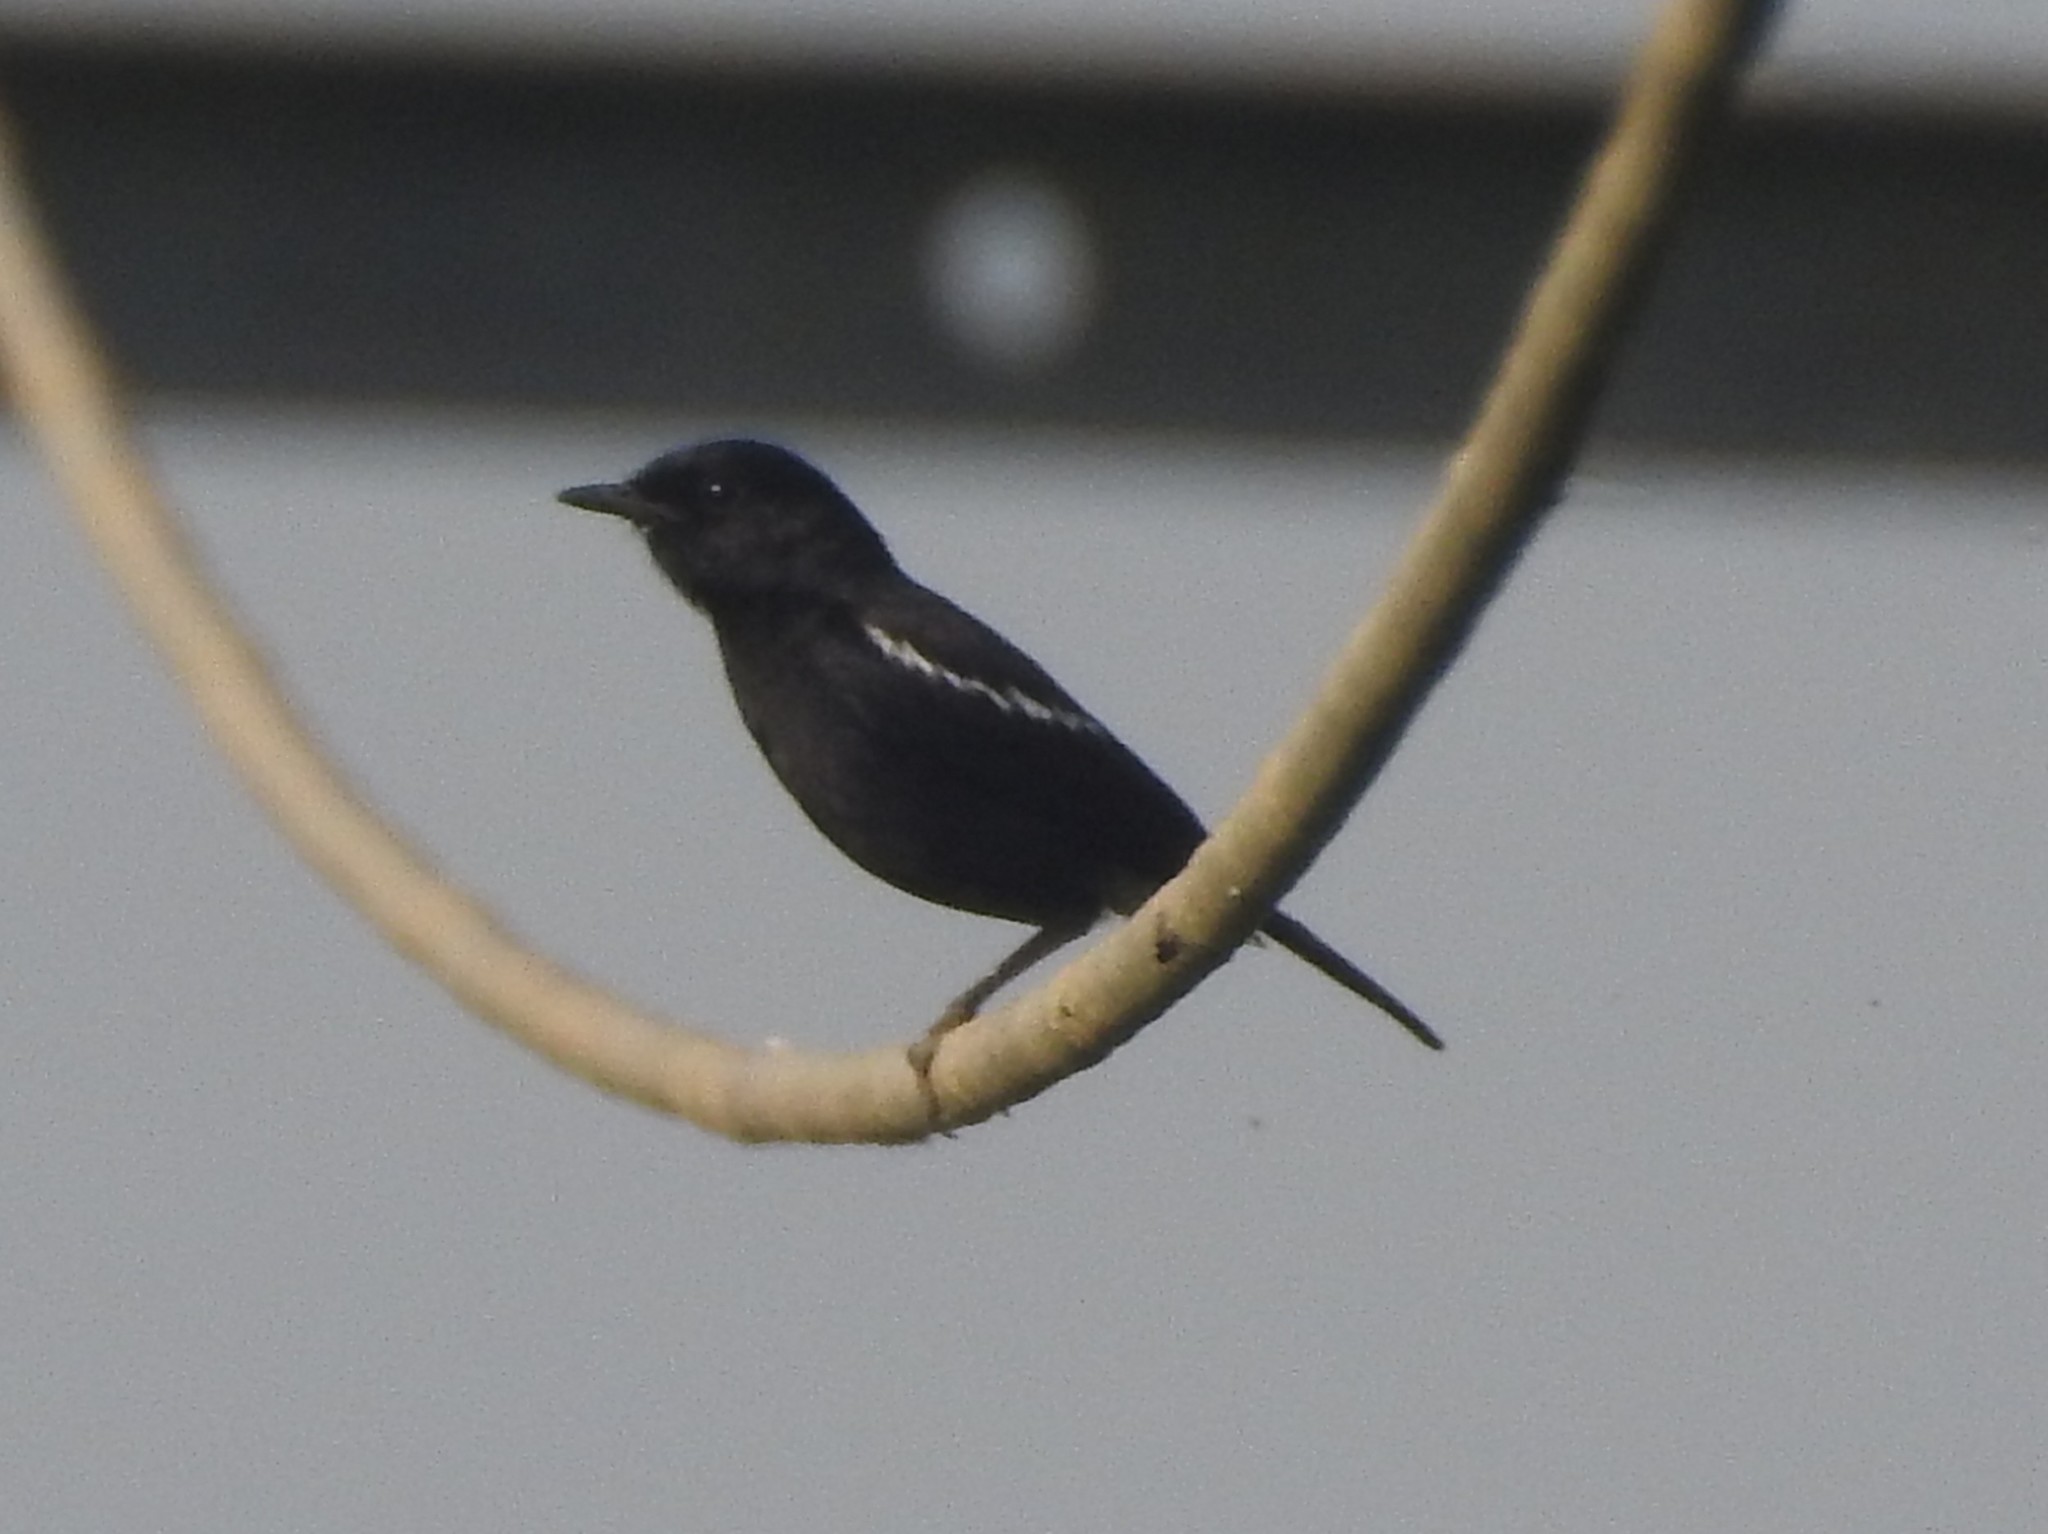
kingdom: Animalia
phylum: Chordata
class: Aves
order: Passeriformes
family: Muscicapidae
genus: Saxicola
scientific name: Saxicola caprata
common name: Pied bush chat
